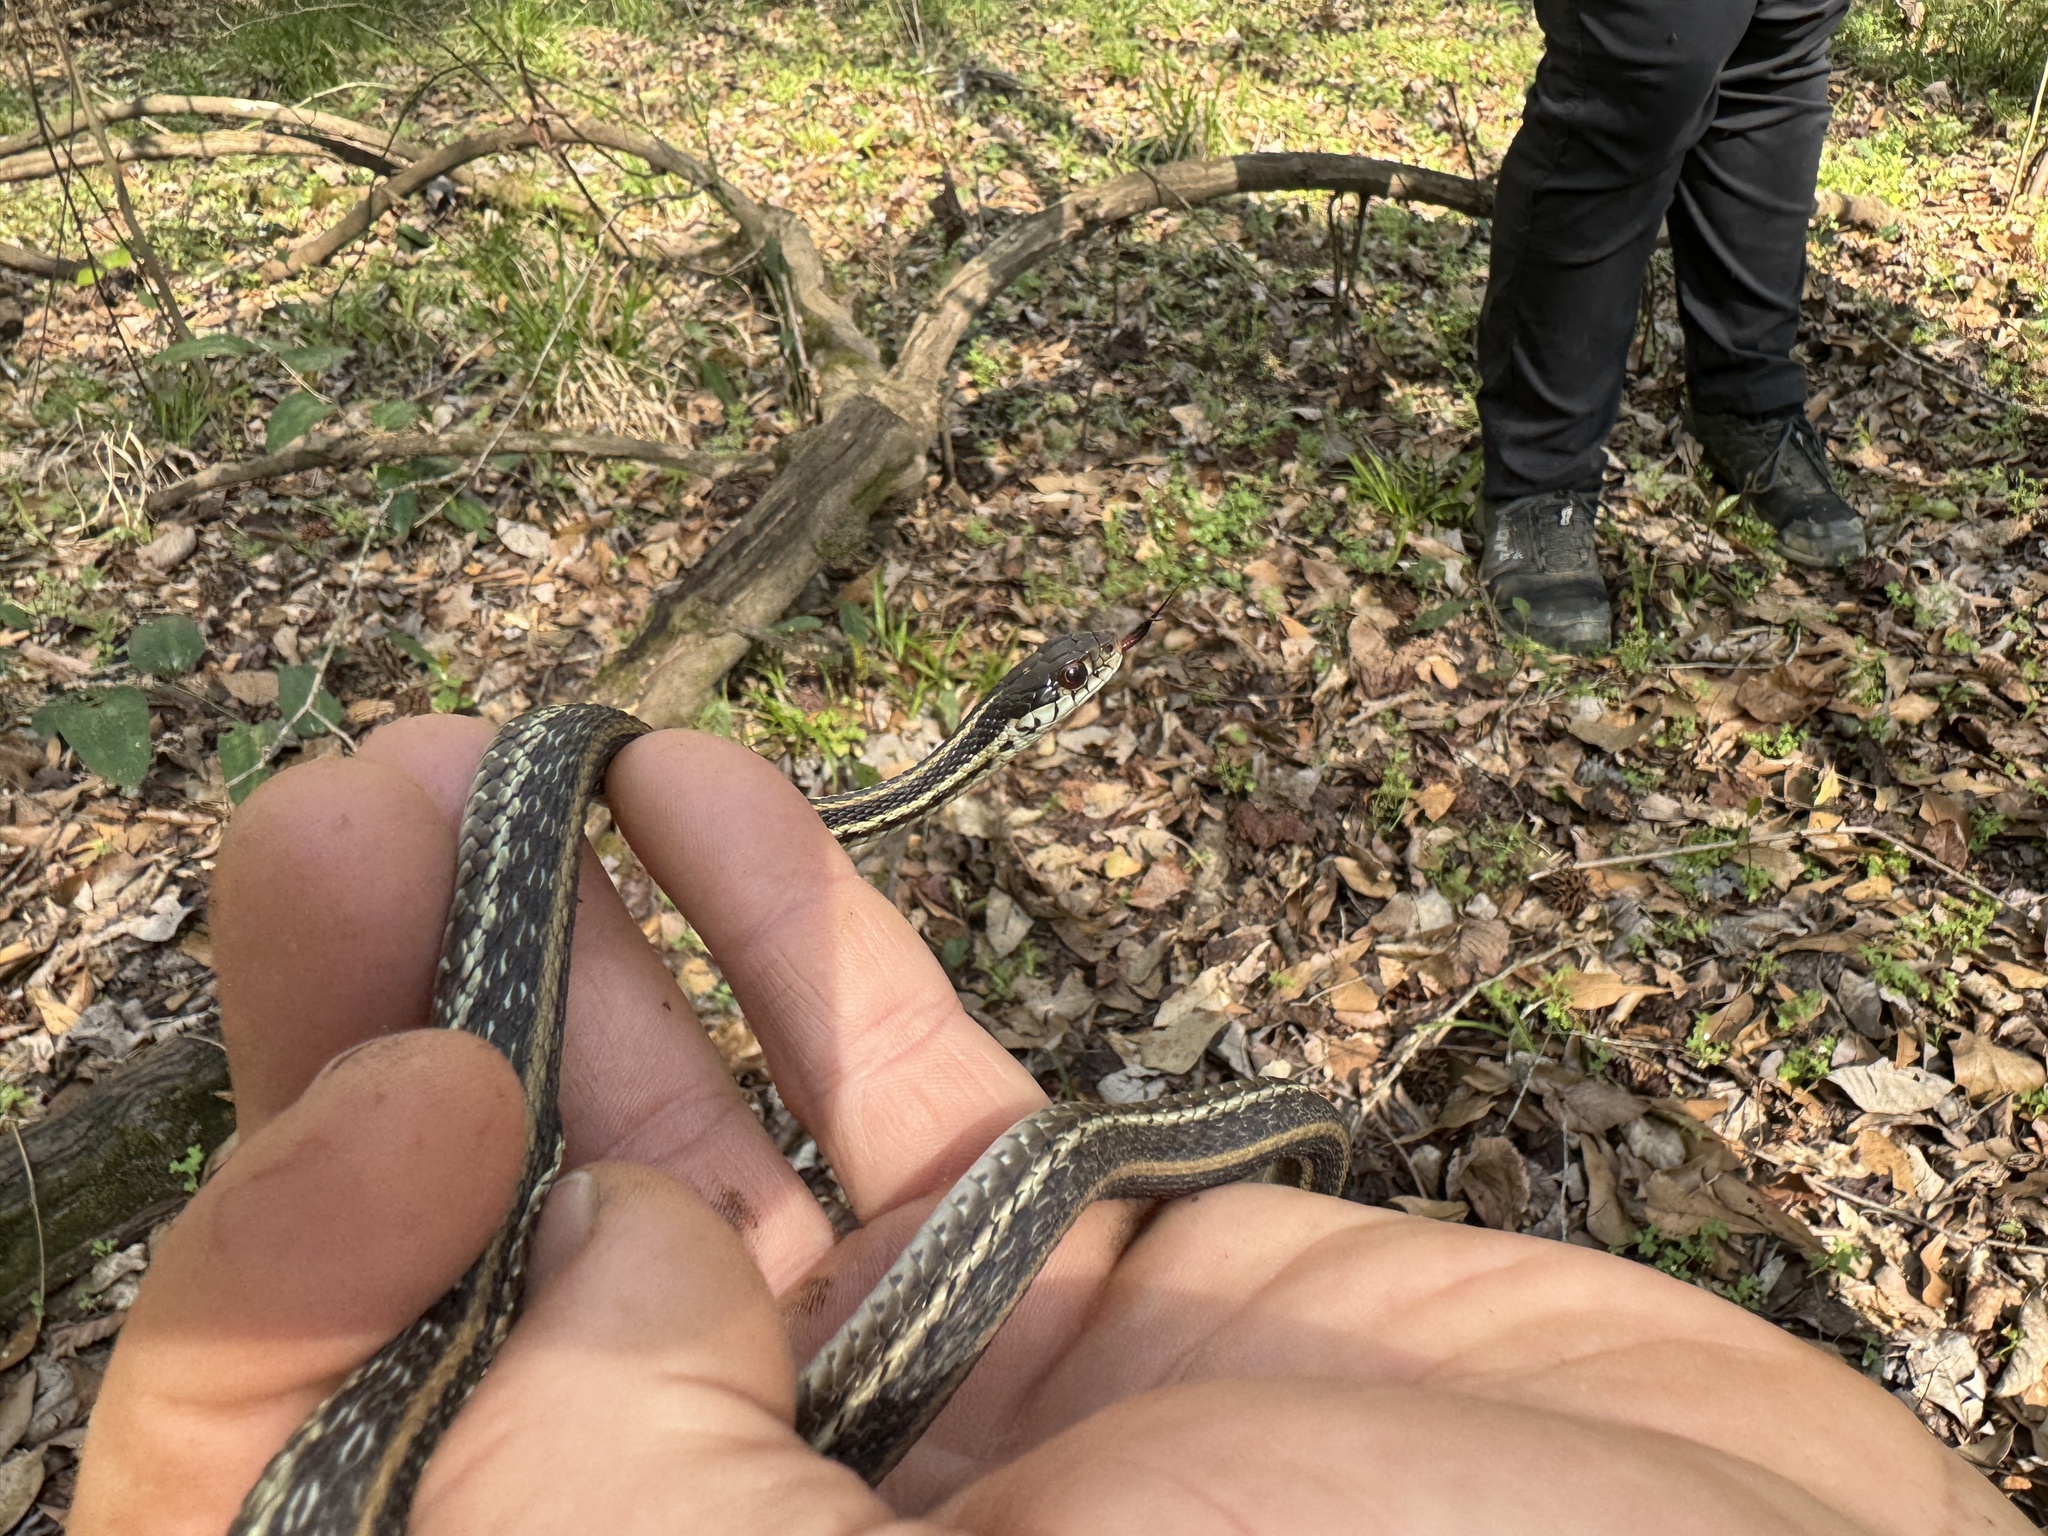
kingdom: Animalia
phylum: Chordata
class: Squamata
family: Colubridae
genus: Thamnophis
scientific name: Thamnophis sirtalis
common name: Common garter snake
